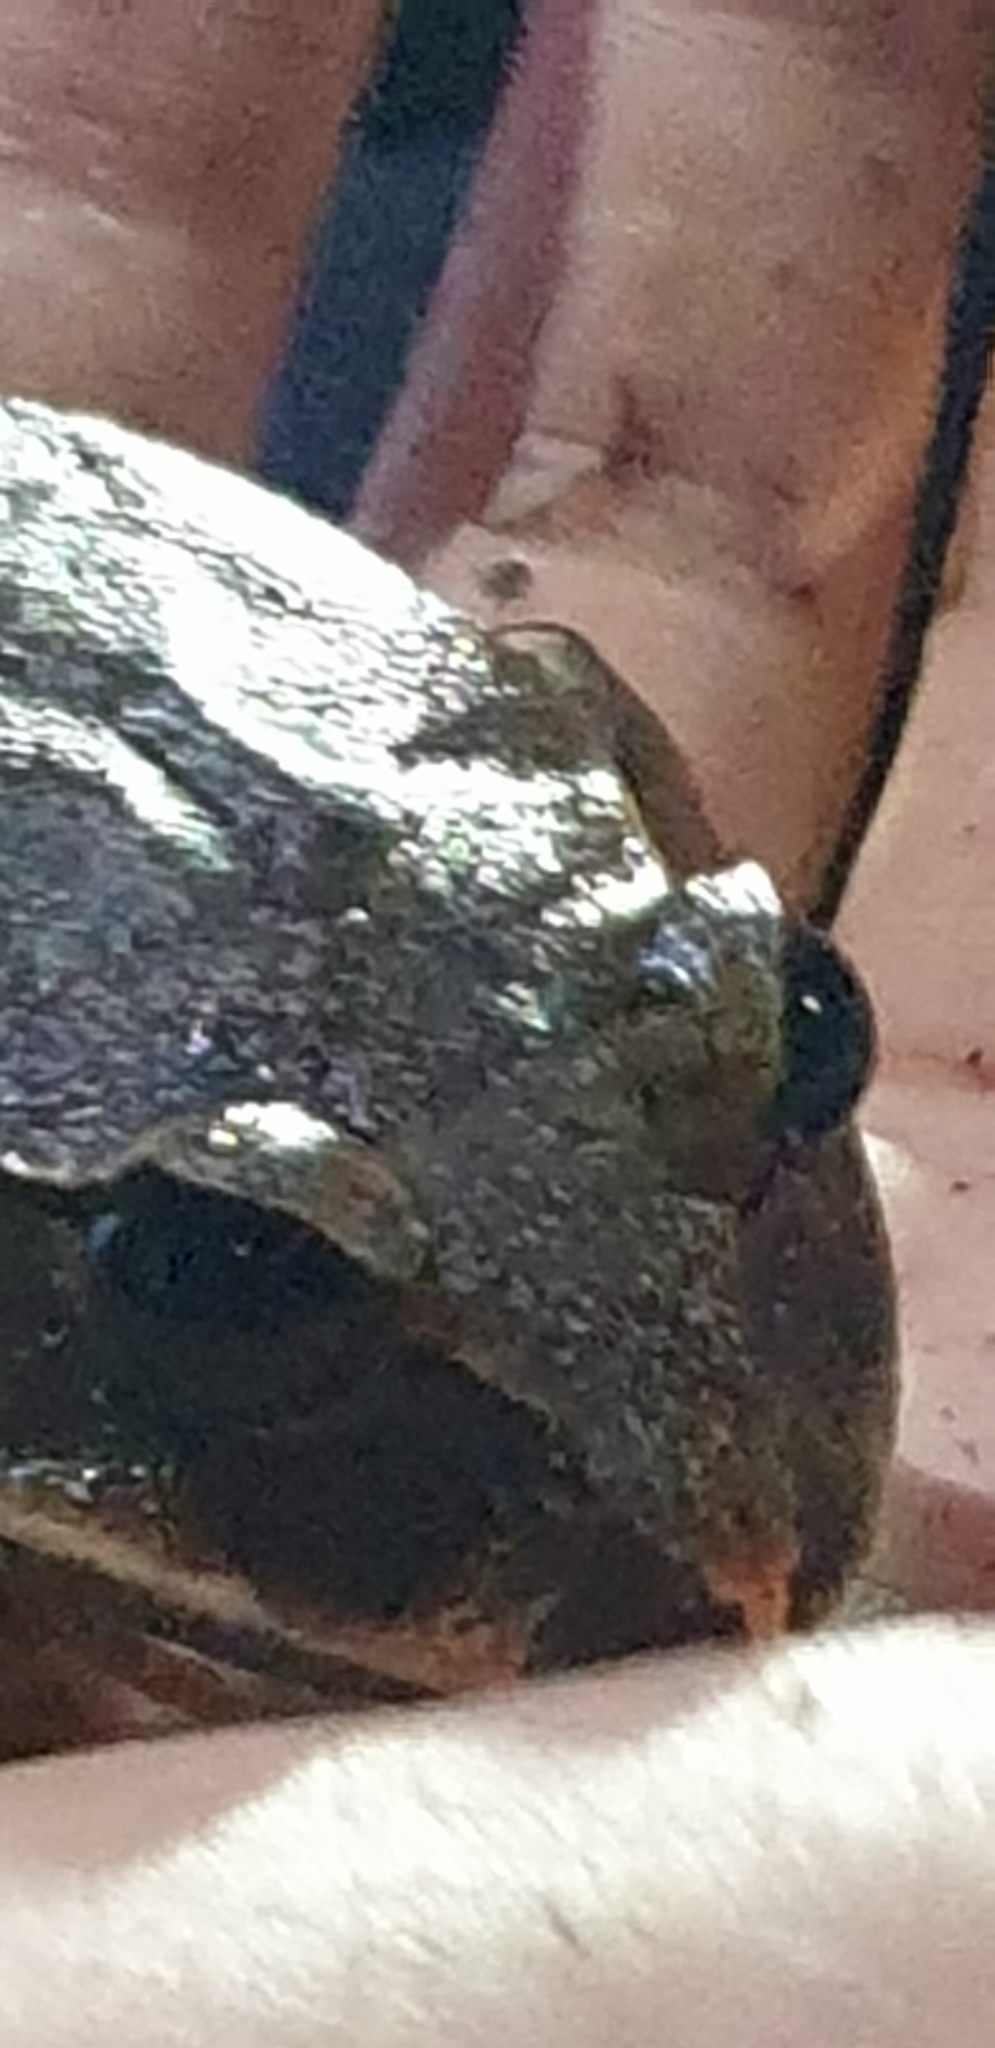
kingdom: Animalia
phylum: Chordata
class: Amphibia
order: Anura
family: Myobatrachidae
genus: Mixophyes
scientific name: Mixophyes fasciolatus
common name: Great barred river-frog
